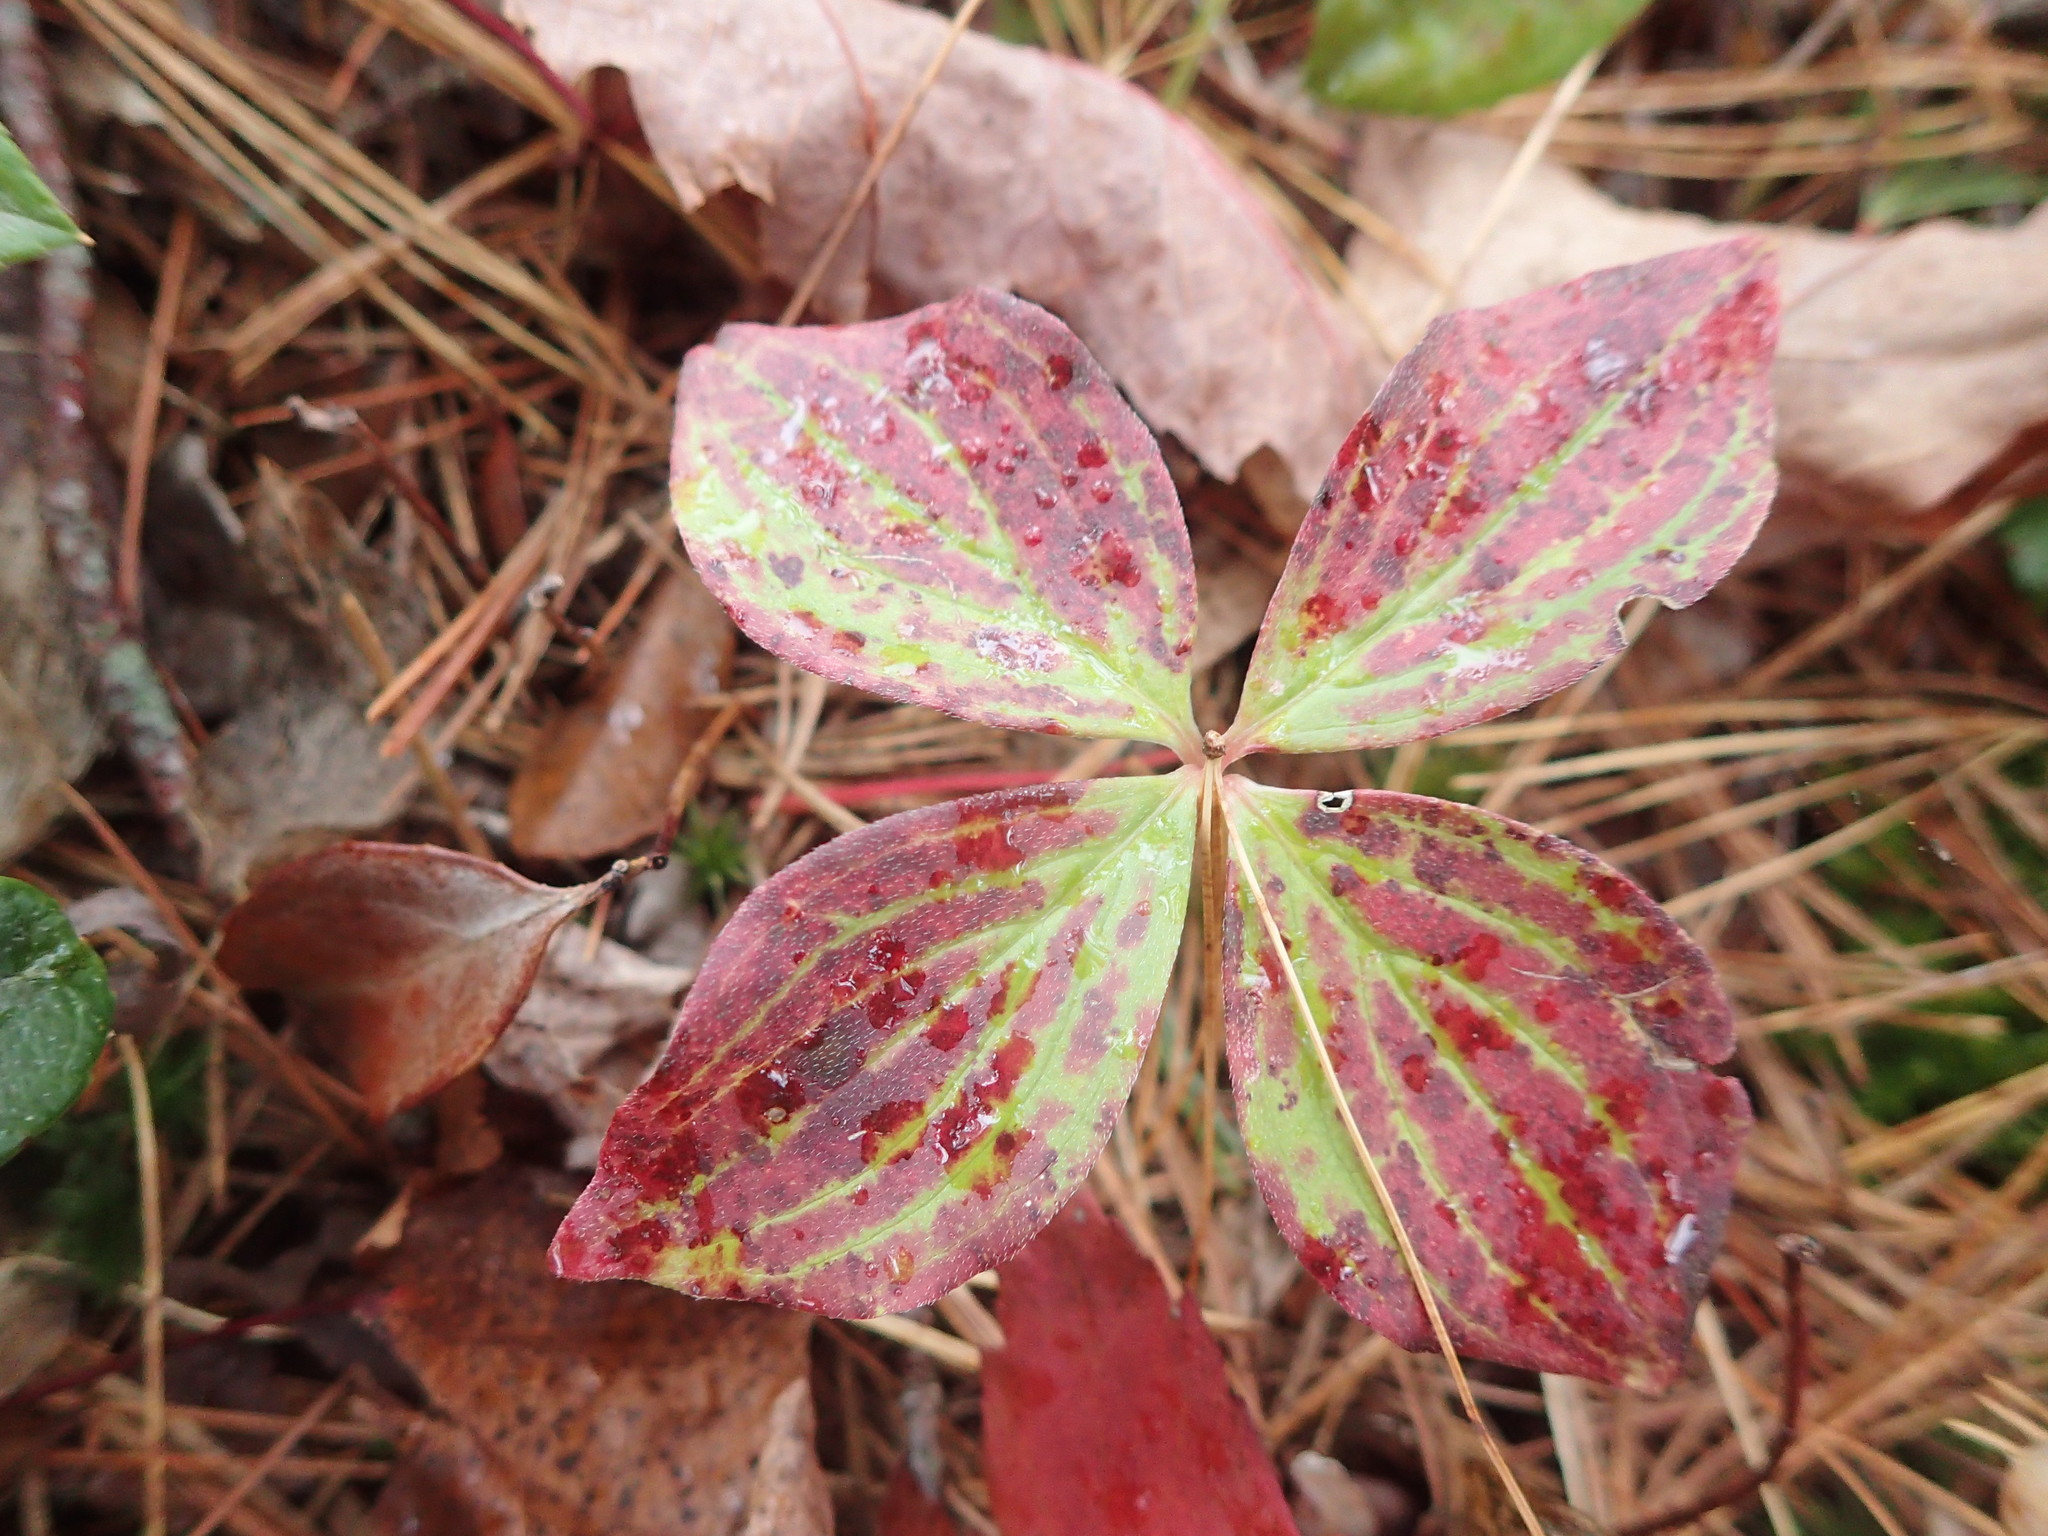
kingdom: Plantae
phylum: Tracheophyta
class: Magnoliopsida
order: Cornales
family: Cornaceae
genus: Cornus
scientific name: Cornus canadensis
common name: Creeping dogwood
